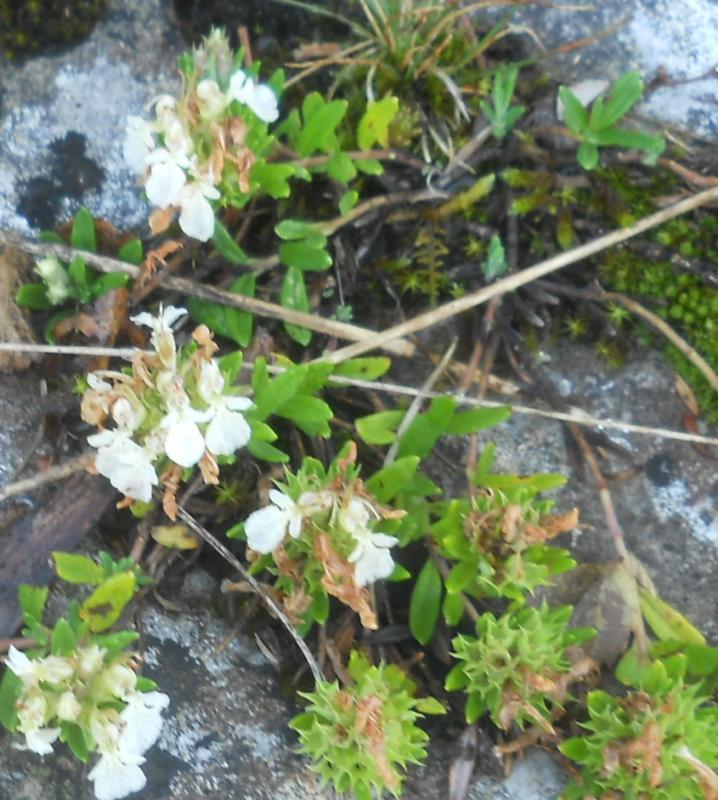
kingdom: Plantae
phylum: Tracheophyta
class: Magnoliopsida
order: Lamiales
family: Lamiaceae
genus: Teucrium
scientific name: Teucrium montanum
